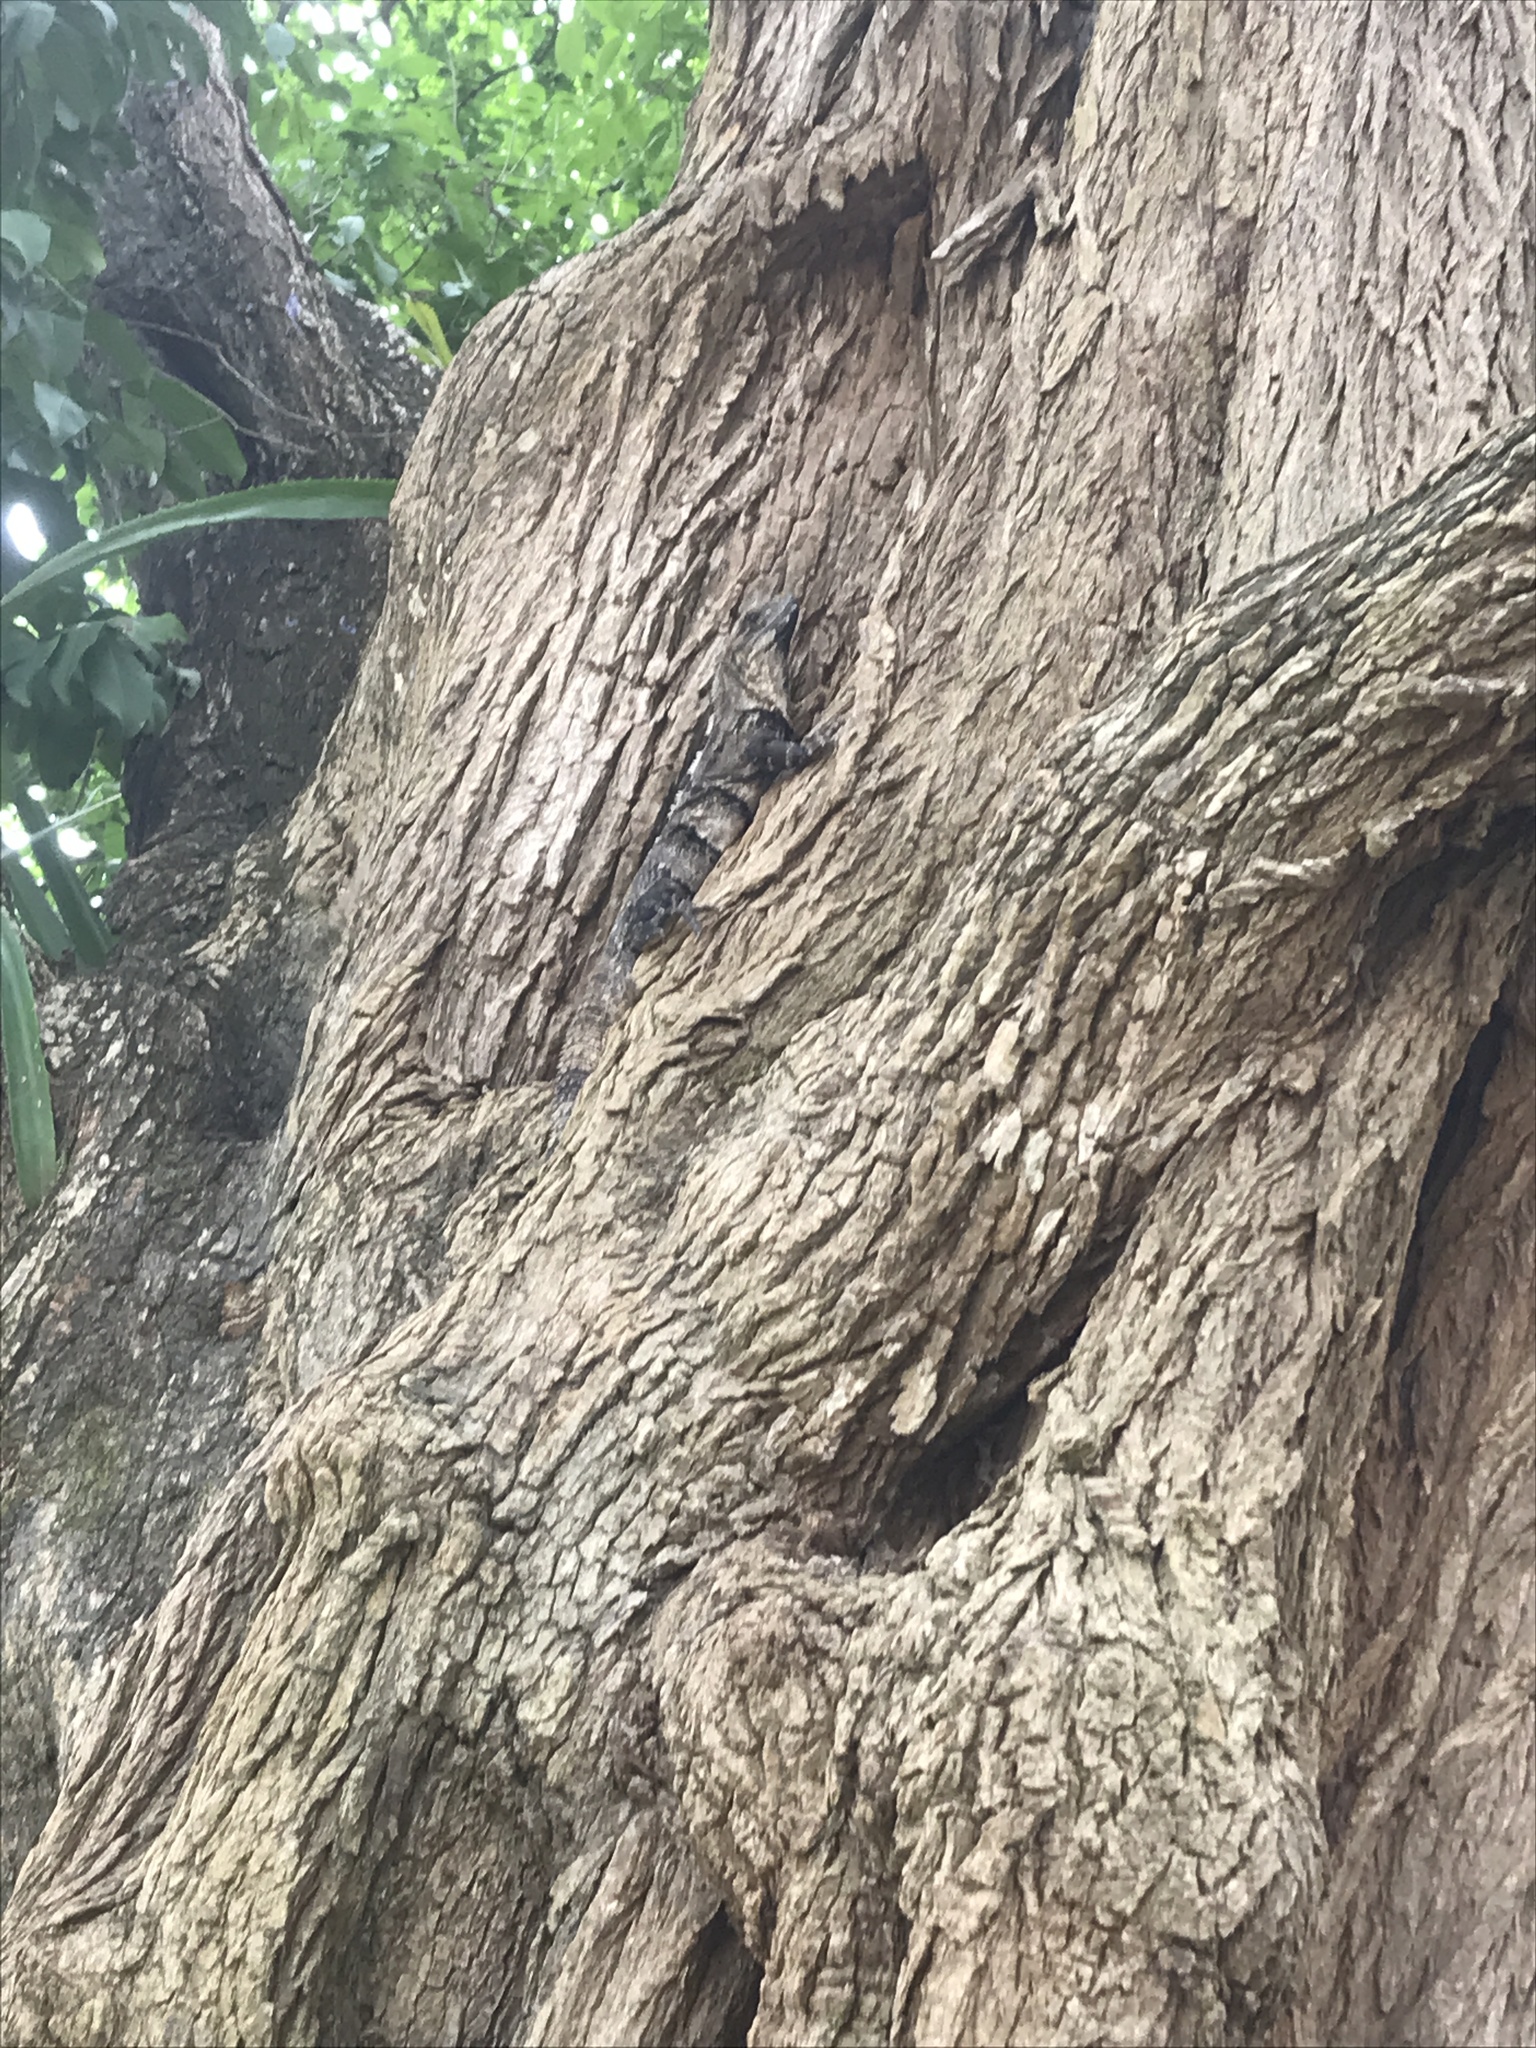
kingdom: Animalia
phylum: Chordata
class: Squamata
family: Iguanidae
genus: Ctenosaura
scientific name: Ctenosaura similis
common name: Black spiny-tailed iguana
